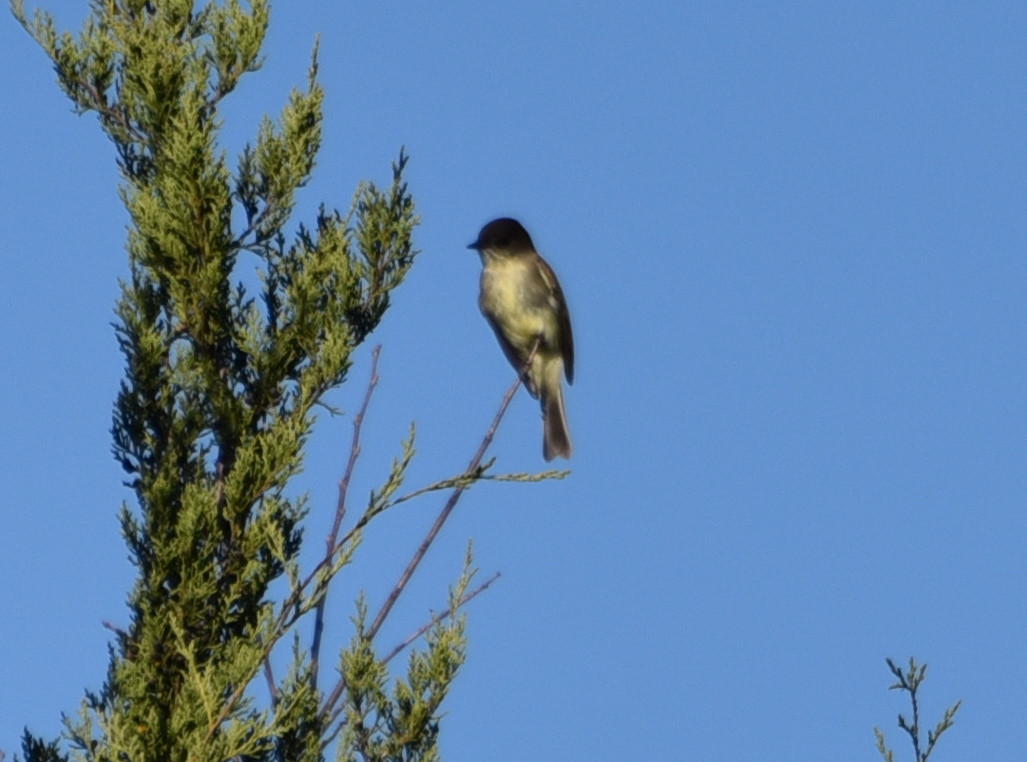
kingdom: Animalia
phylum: Chordata
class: Aves
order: Passeriformes
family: Tyrannidae
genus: Sayornis
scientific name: Sayornis phoebe
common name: Eastern phoebe
